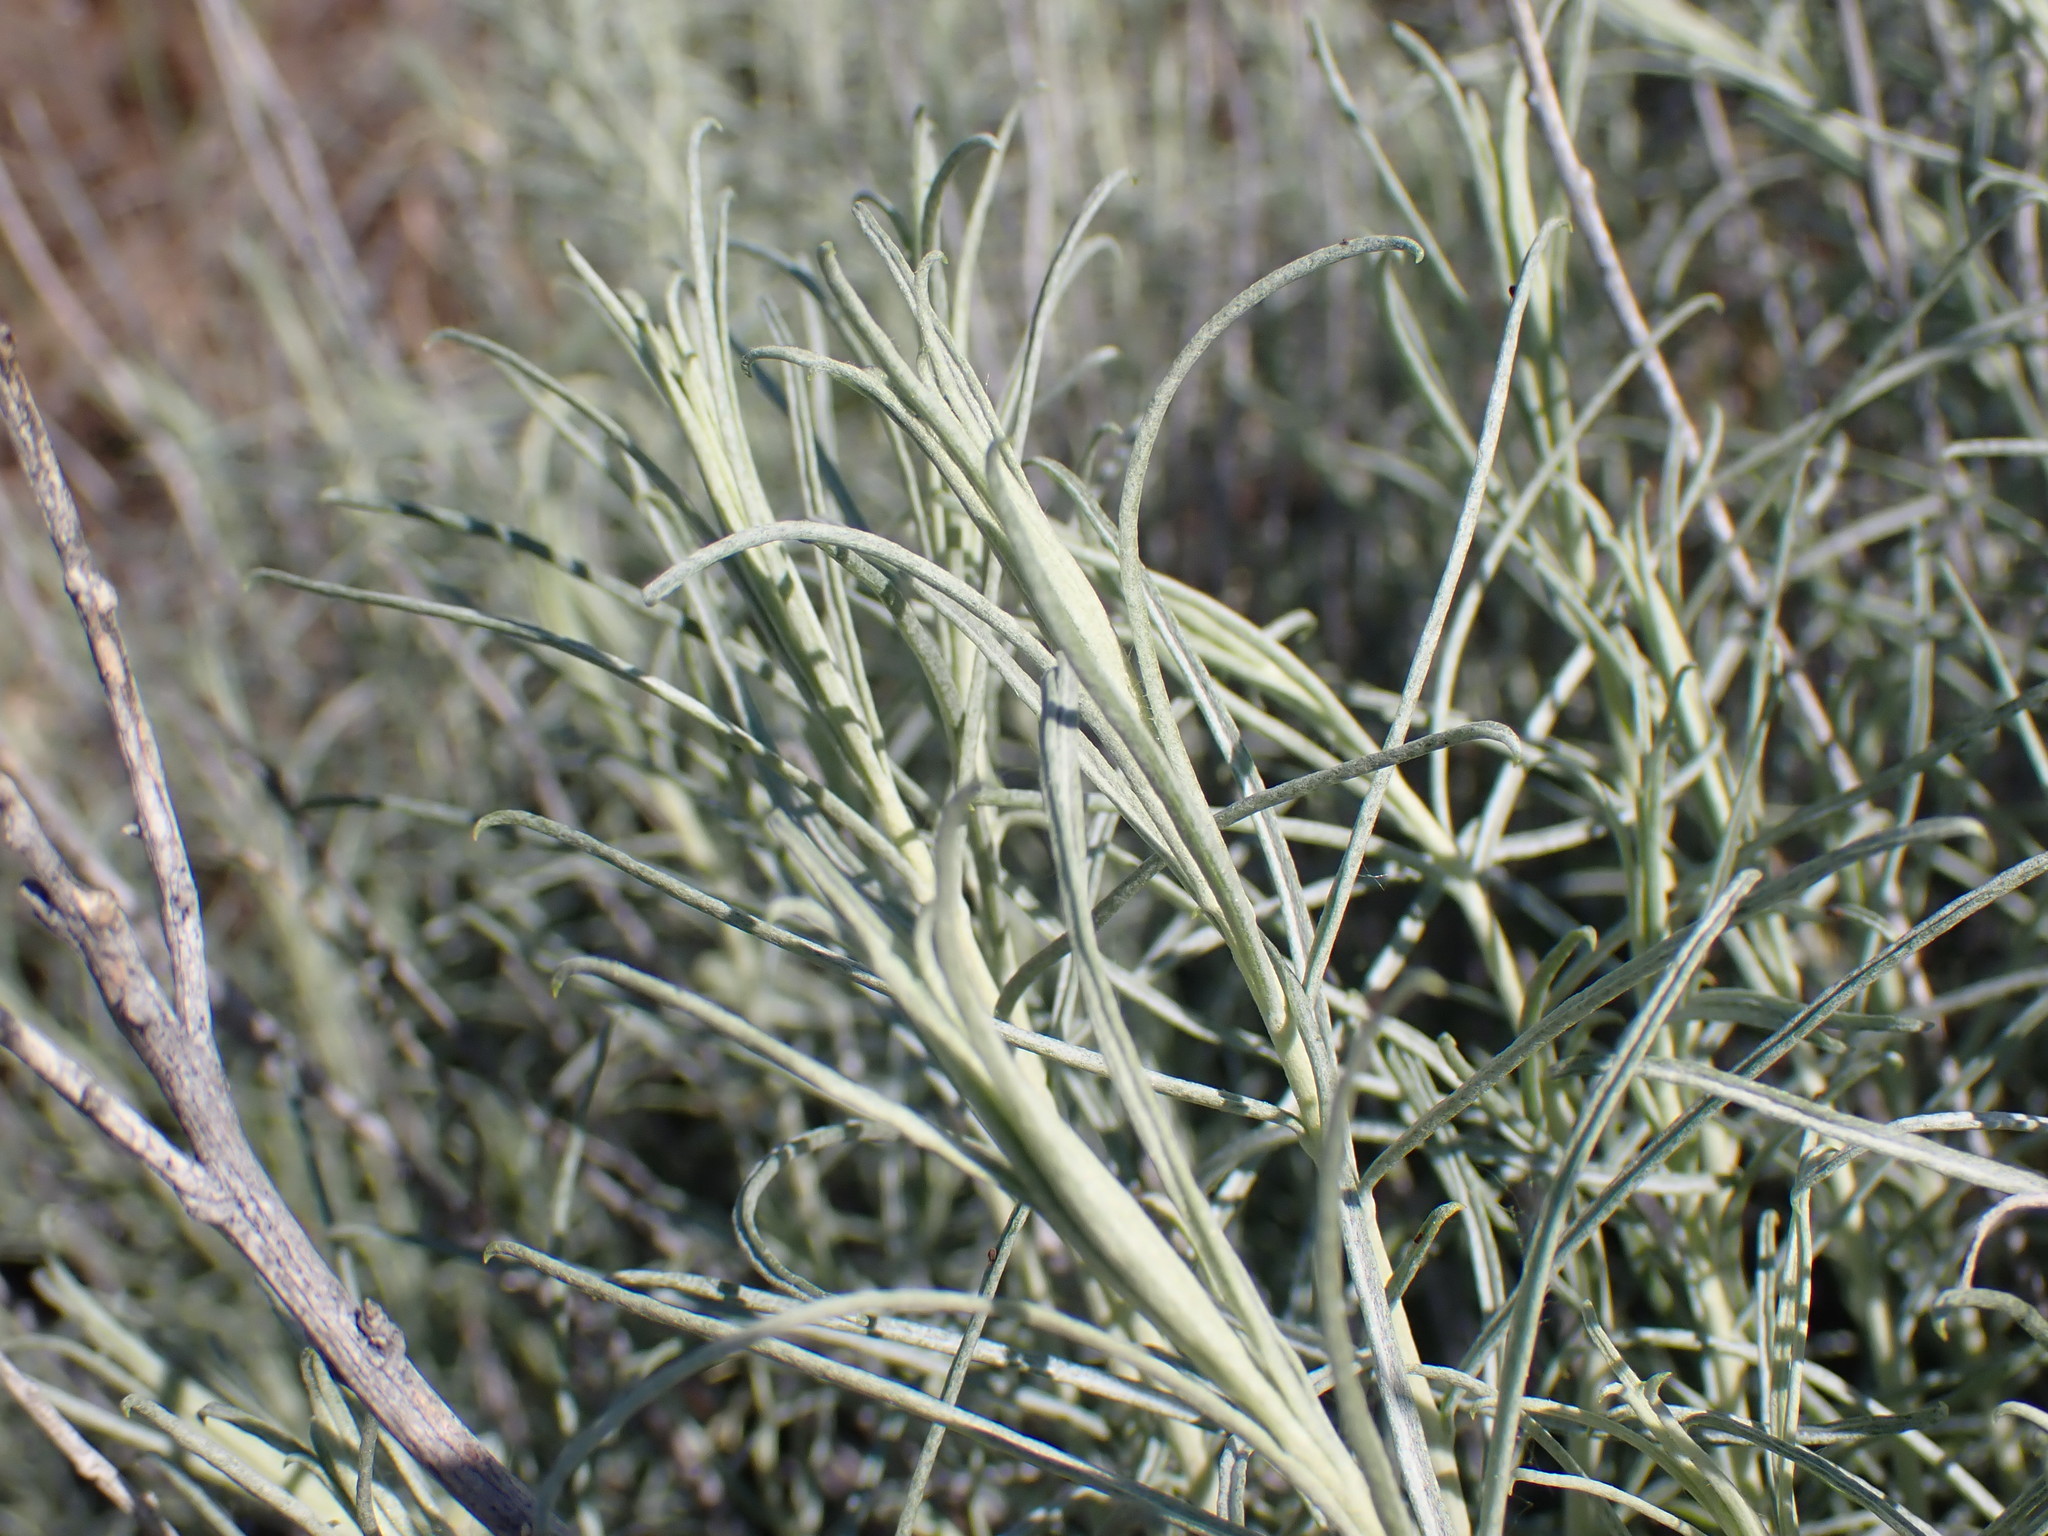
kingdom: Plantae
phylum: Tracheophyta
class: Magnoliopsida
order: Asterales
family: Asteraceae
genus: Ericameria
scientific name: Ericameria nauseosa
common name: Rubber rabbitbrush
